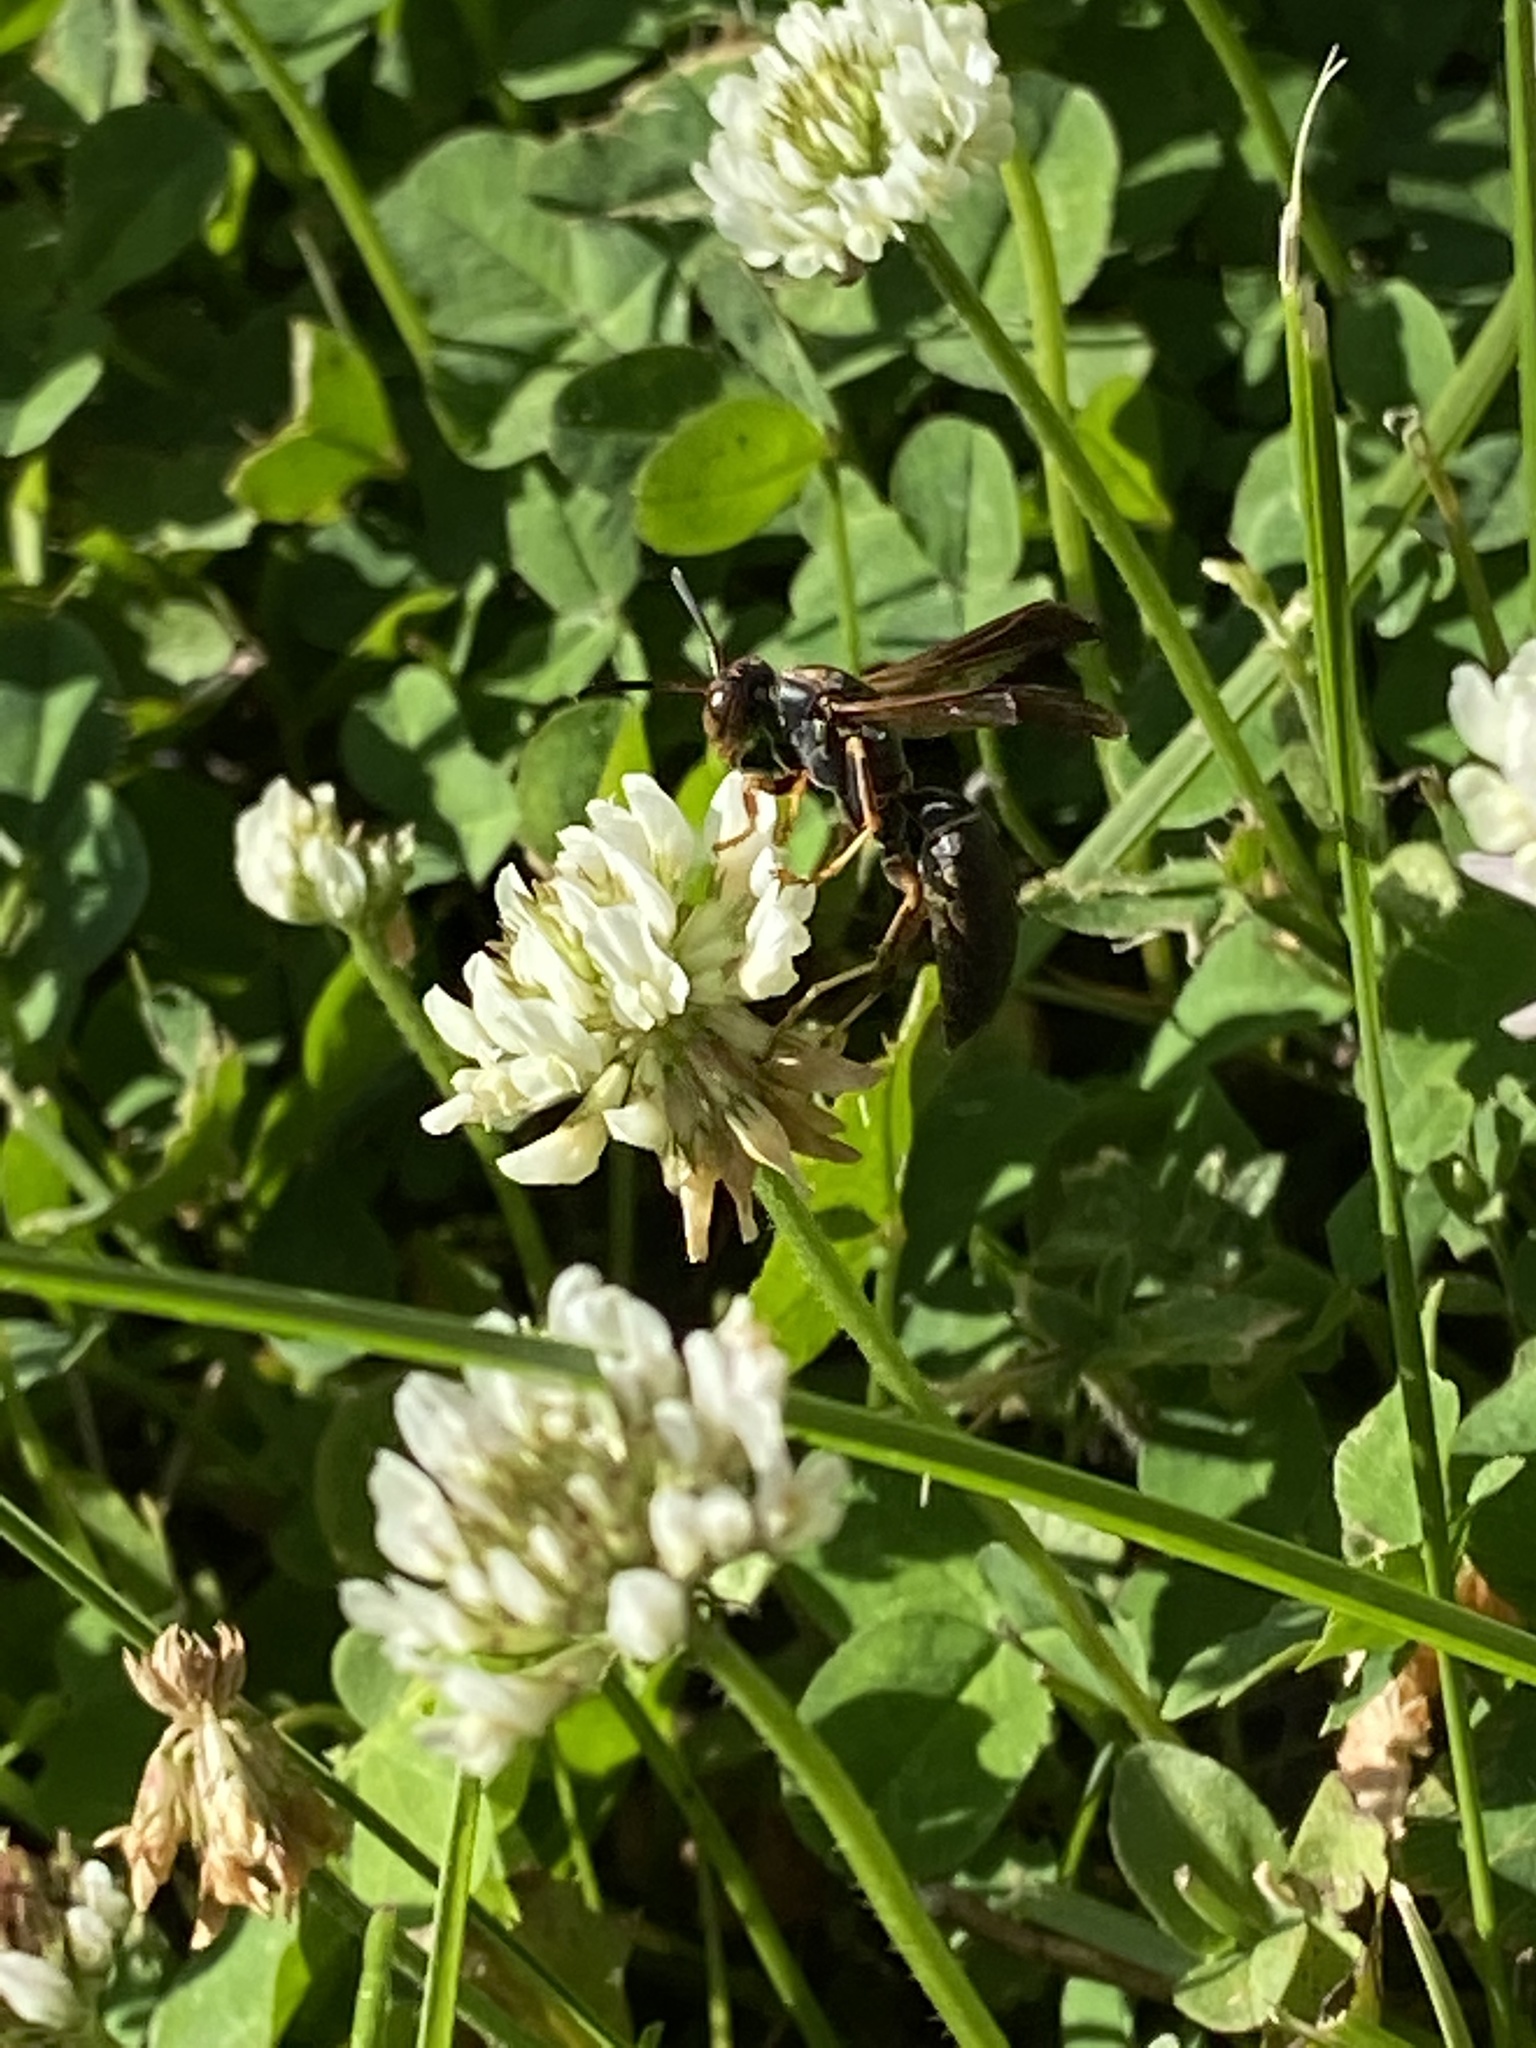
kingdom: Animalia
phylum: Arthropoda
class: Insecta
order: Hymenoptera
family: Eumenidae
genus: Polistes
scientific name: Polistes fuscatus
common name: Dark paper wasp
